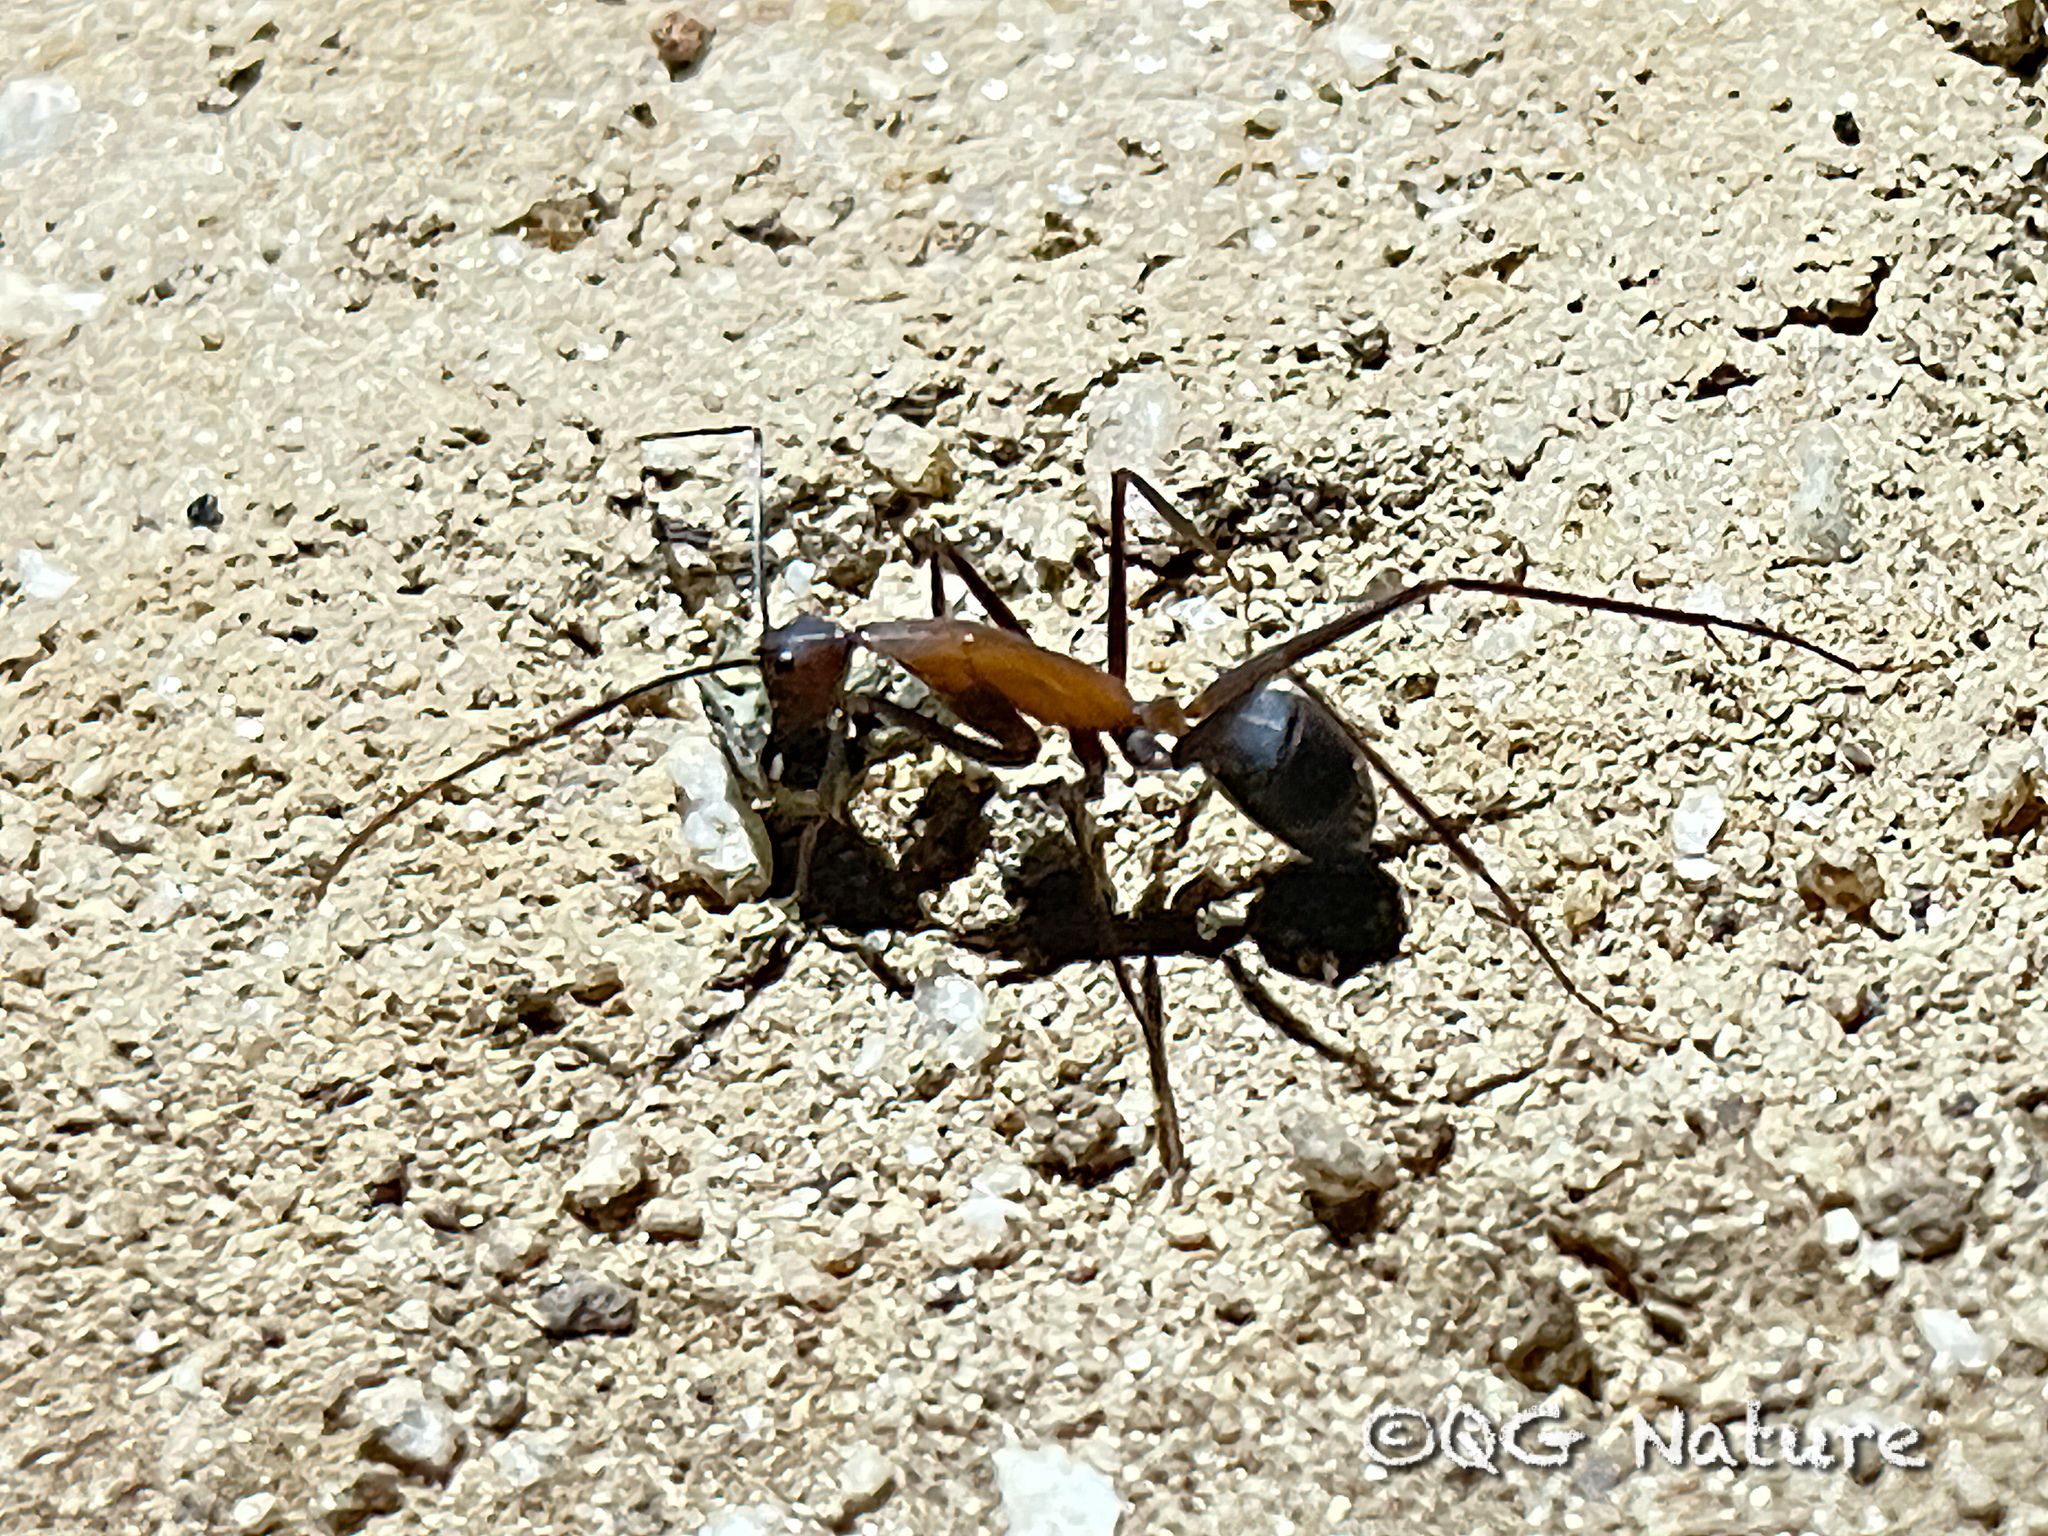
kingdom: Animalia
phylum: Arthropoda
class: Insecta
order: Hymenoptera
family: Formicidae
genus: Camponotus
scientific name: Camponotus angusticollis
